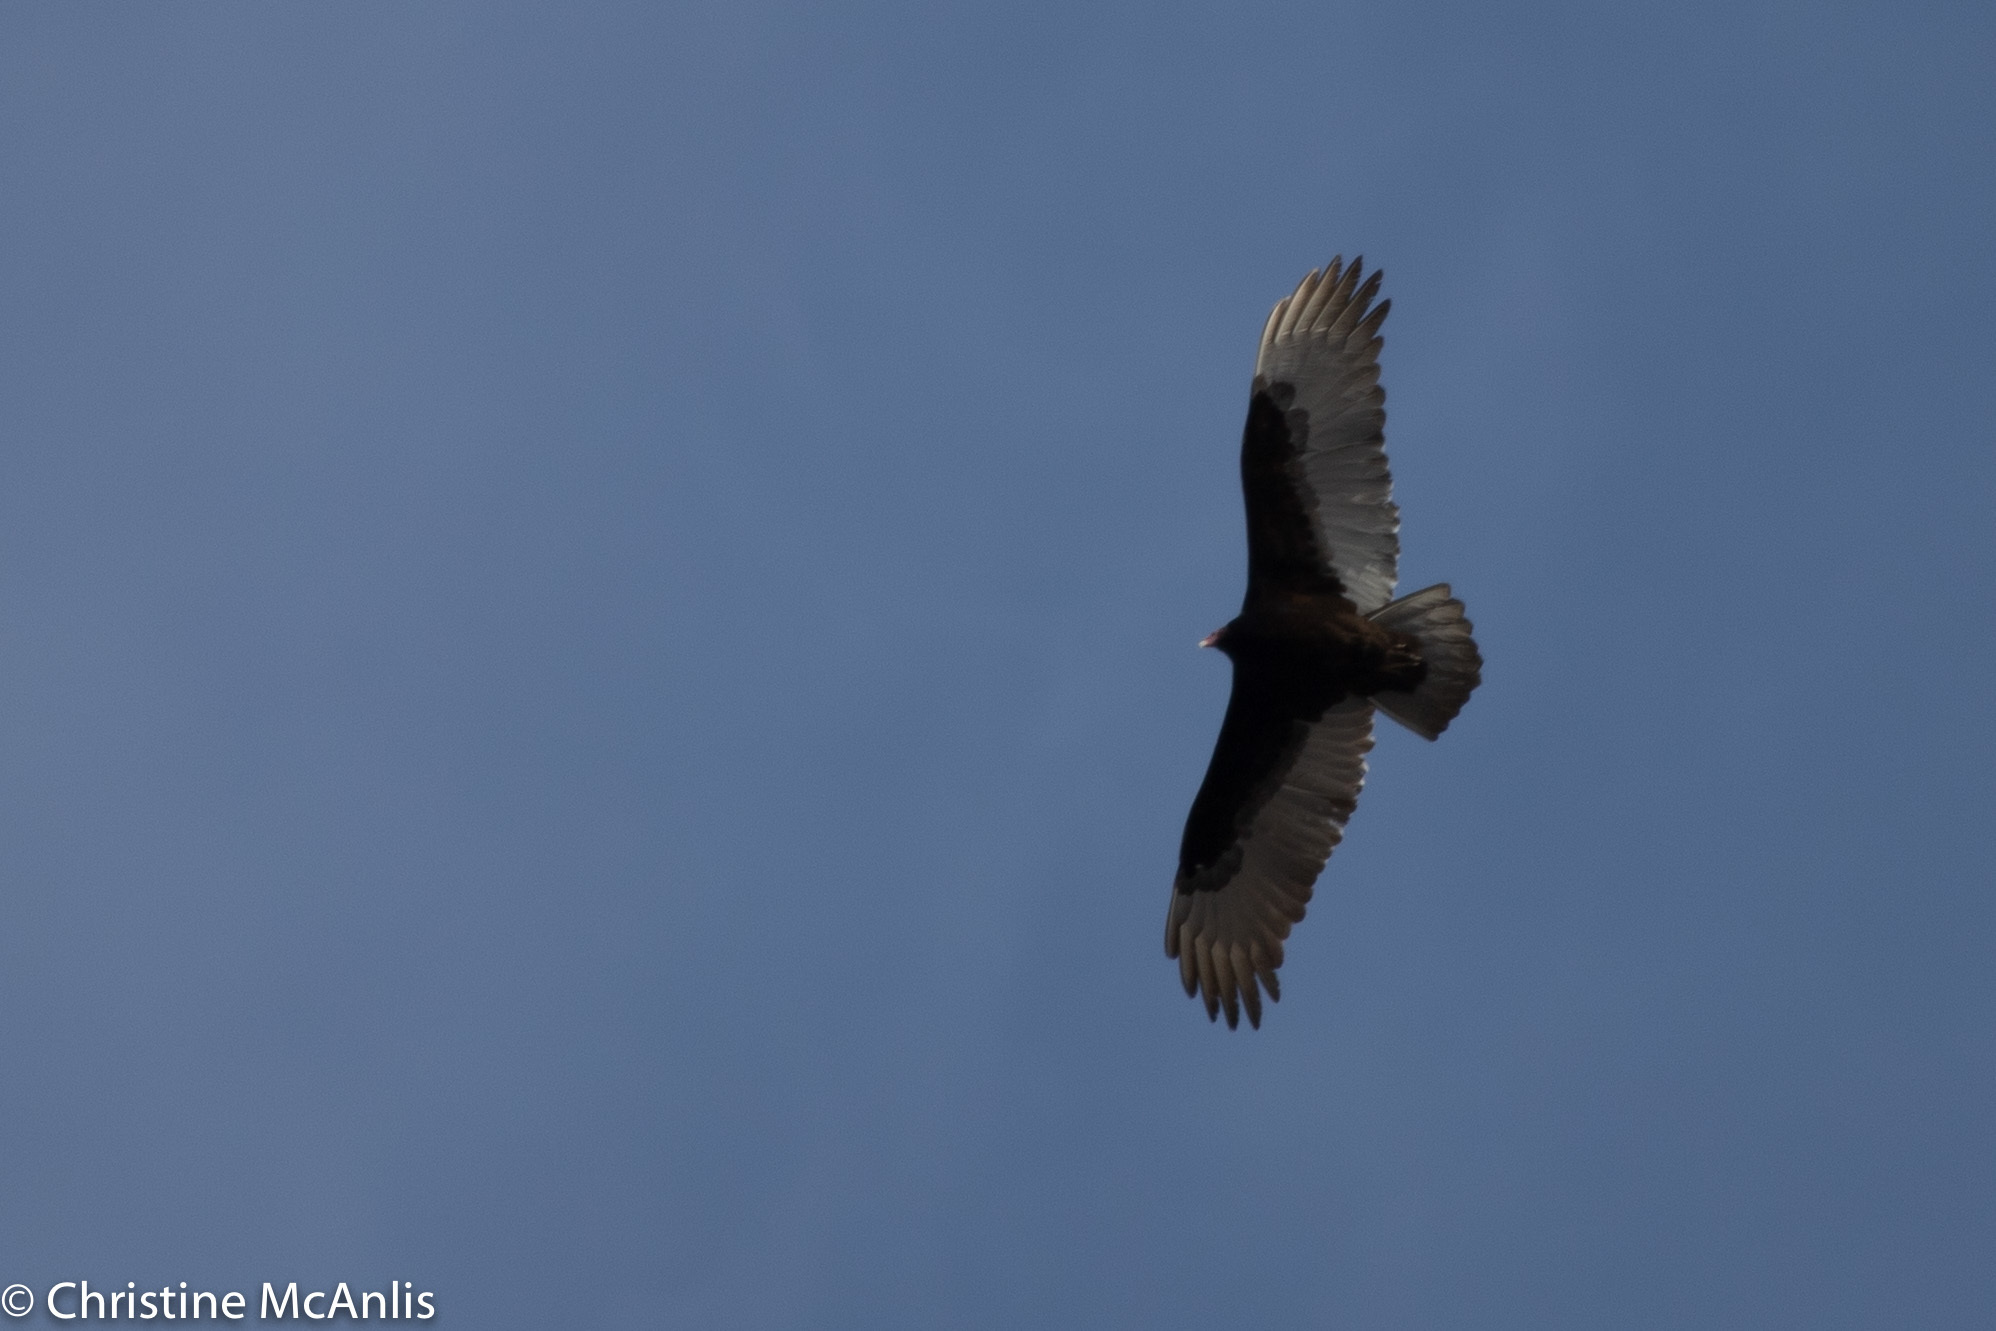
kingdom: Animalia
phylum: Chordata
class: Aves
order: Accipitriformes
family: Cathartidae
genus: Cathartes
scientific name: Cathartes aura
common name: Turkey vulture
